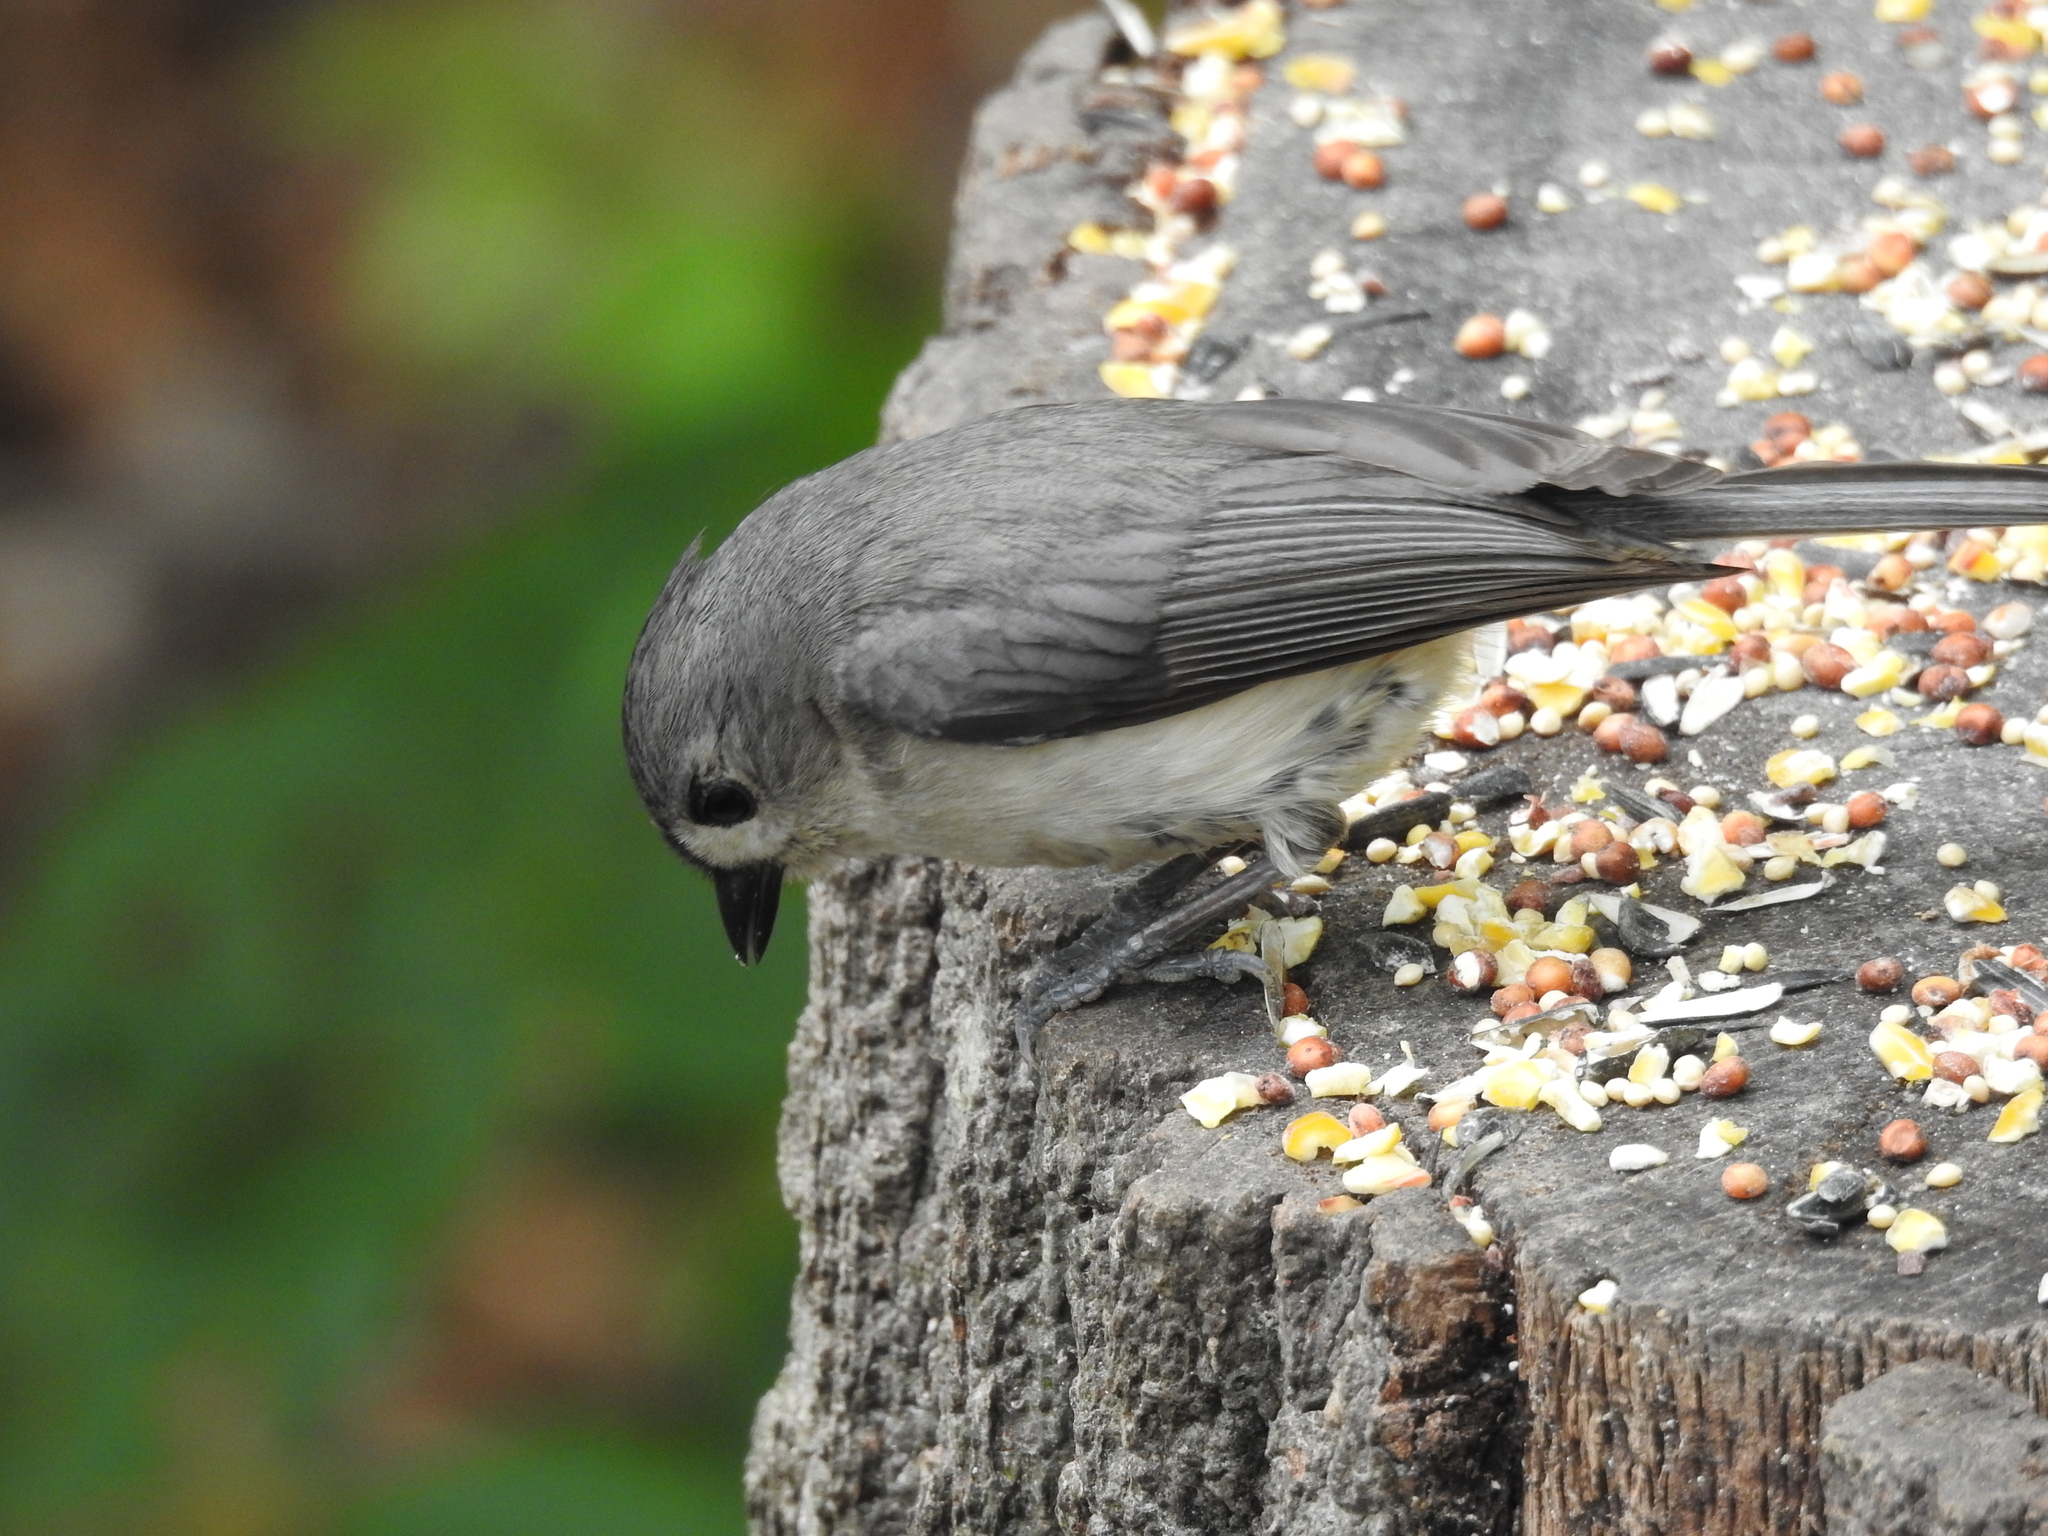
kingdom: Animalia
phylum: Chordata
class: Aves
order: Passeriformes
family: Paridae
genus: Baeolophus
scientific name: Baeolophus bicolor
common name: Tufted titmouse
